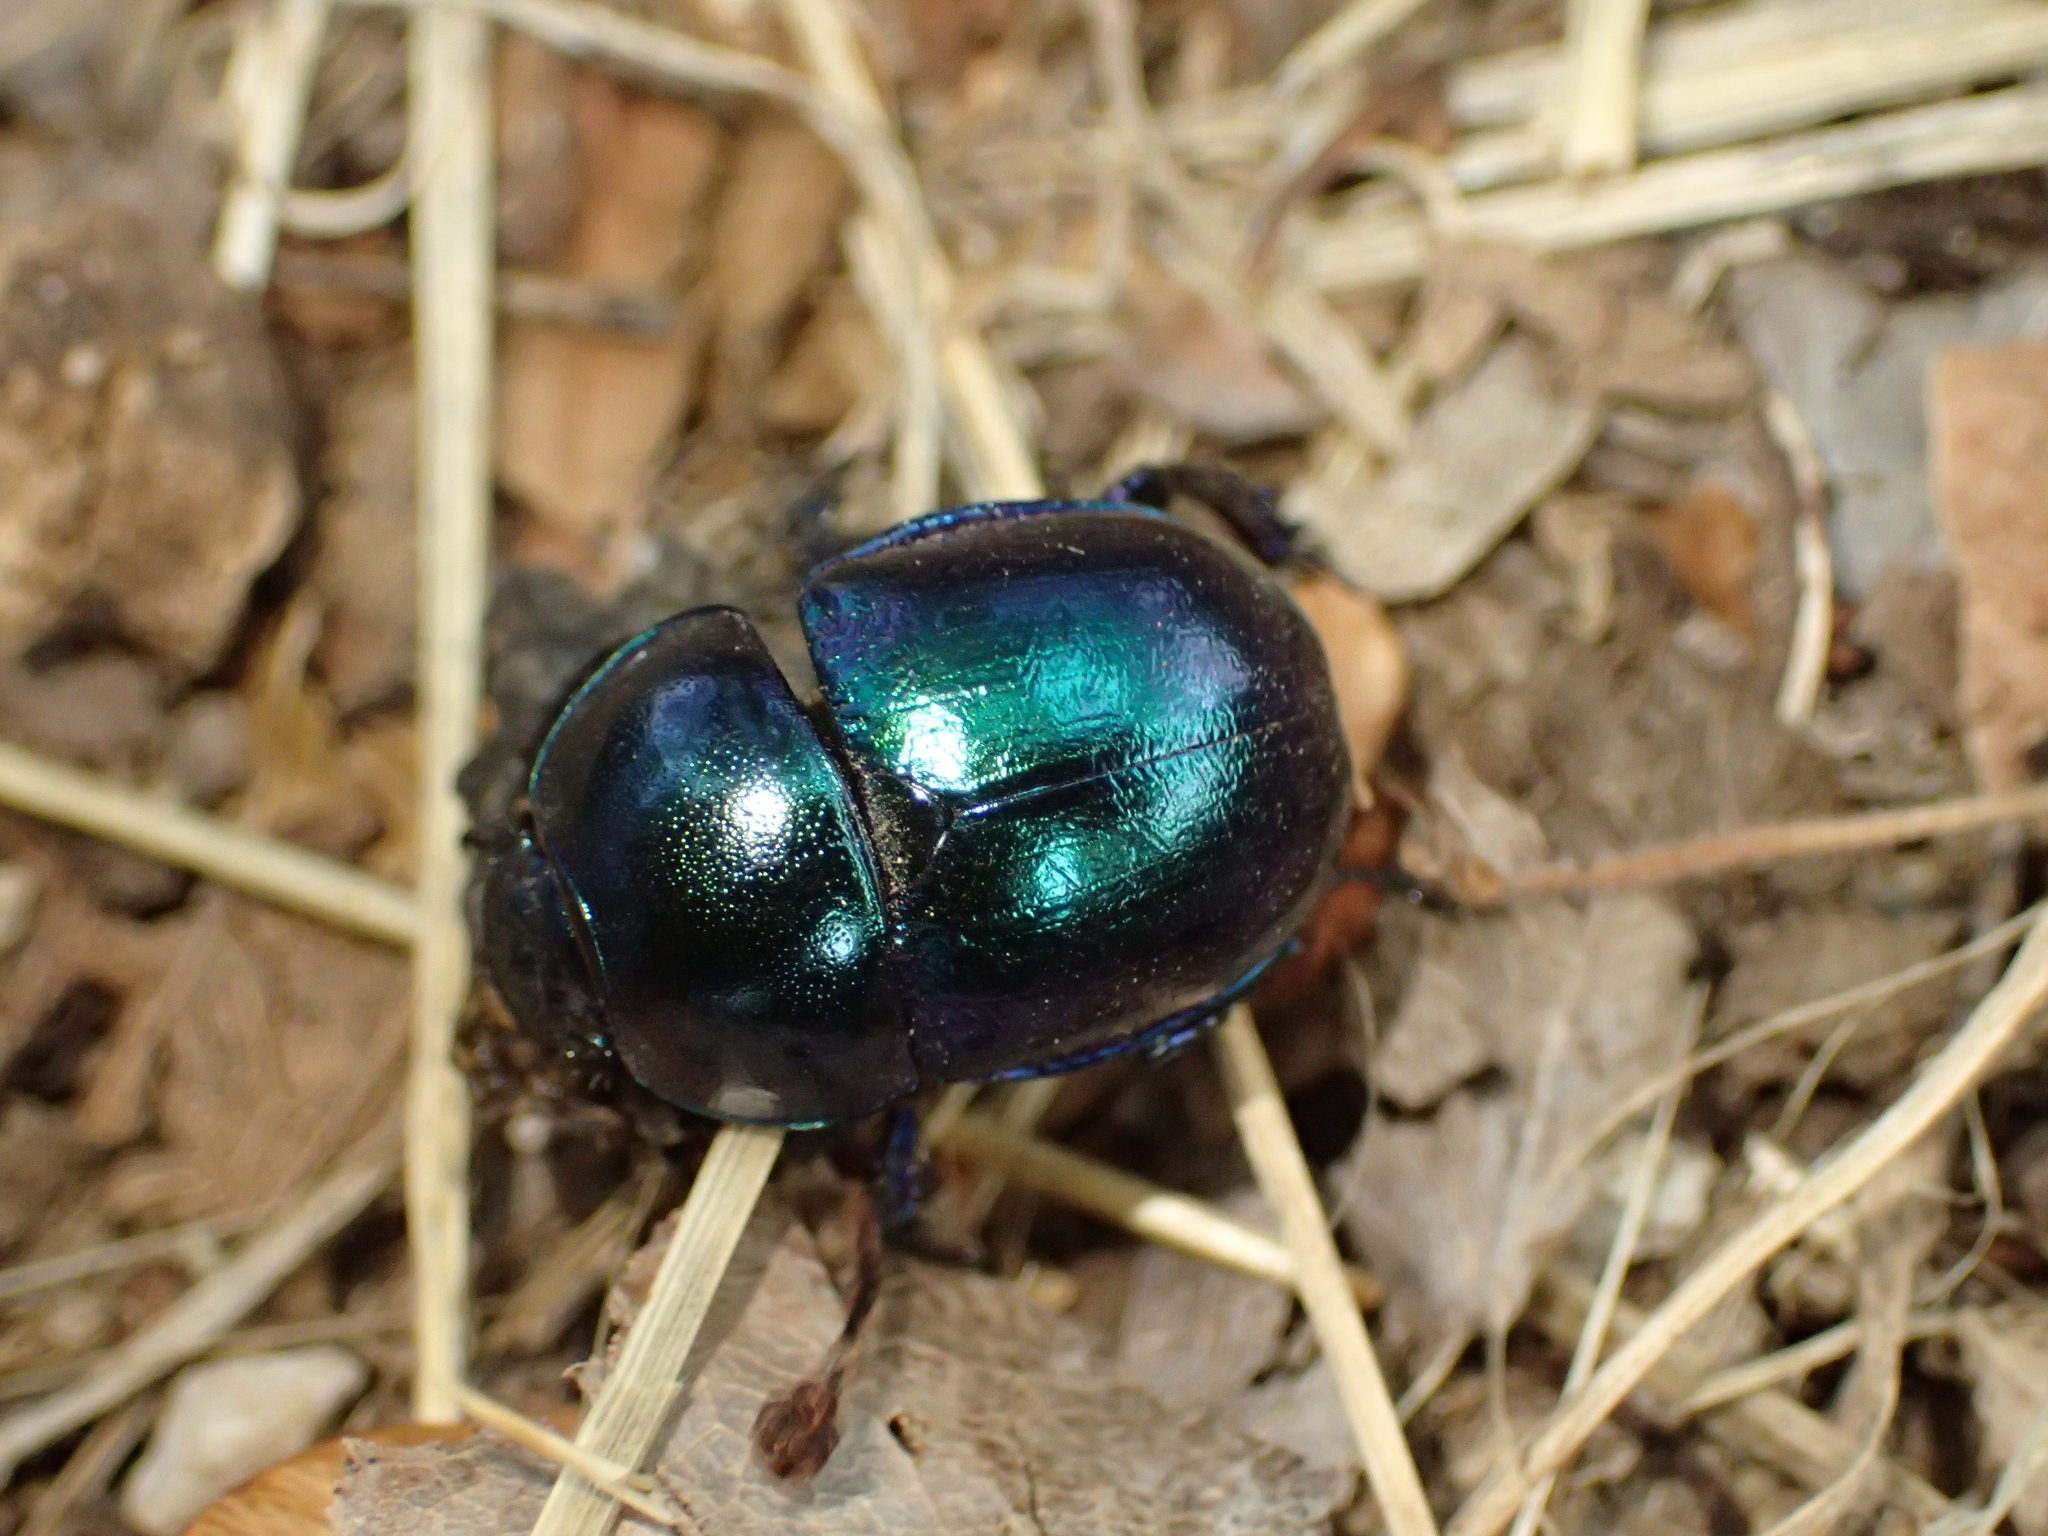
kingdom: Animalia
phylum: Arthropoda
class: Insecta
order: Coleoptera
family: Geotrupidae
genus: Trypocopris
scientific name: Trypocopris vernalis
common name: Spring dumbledor
